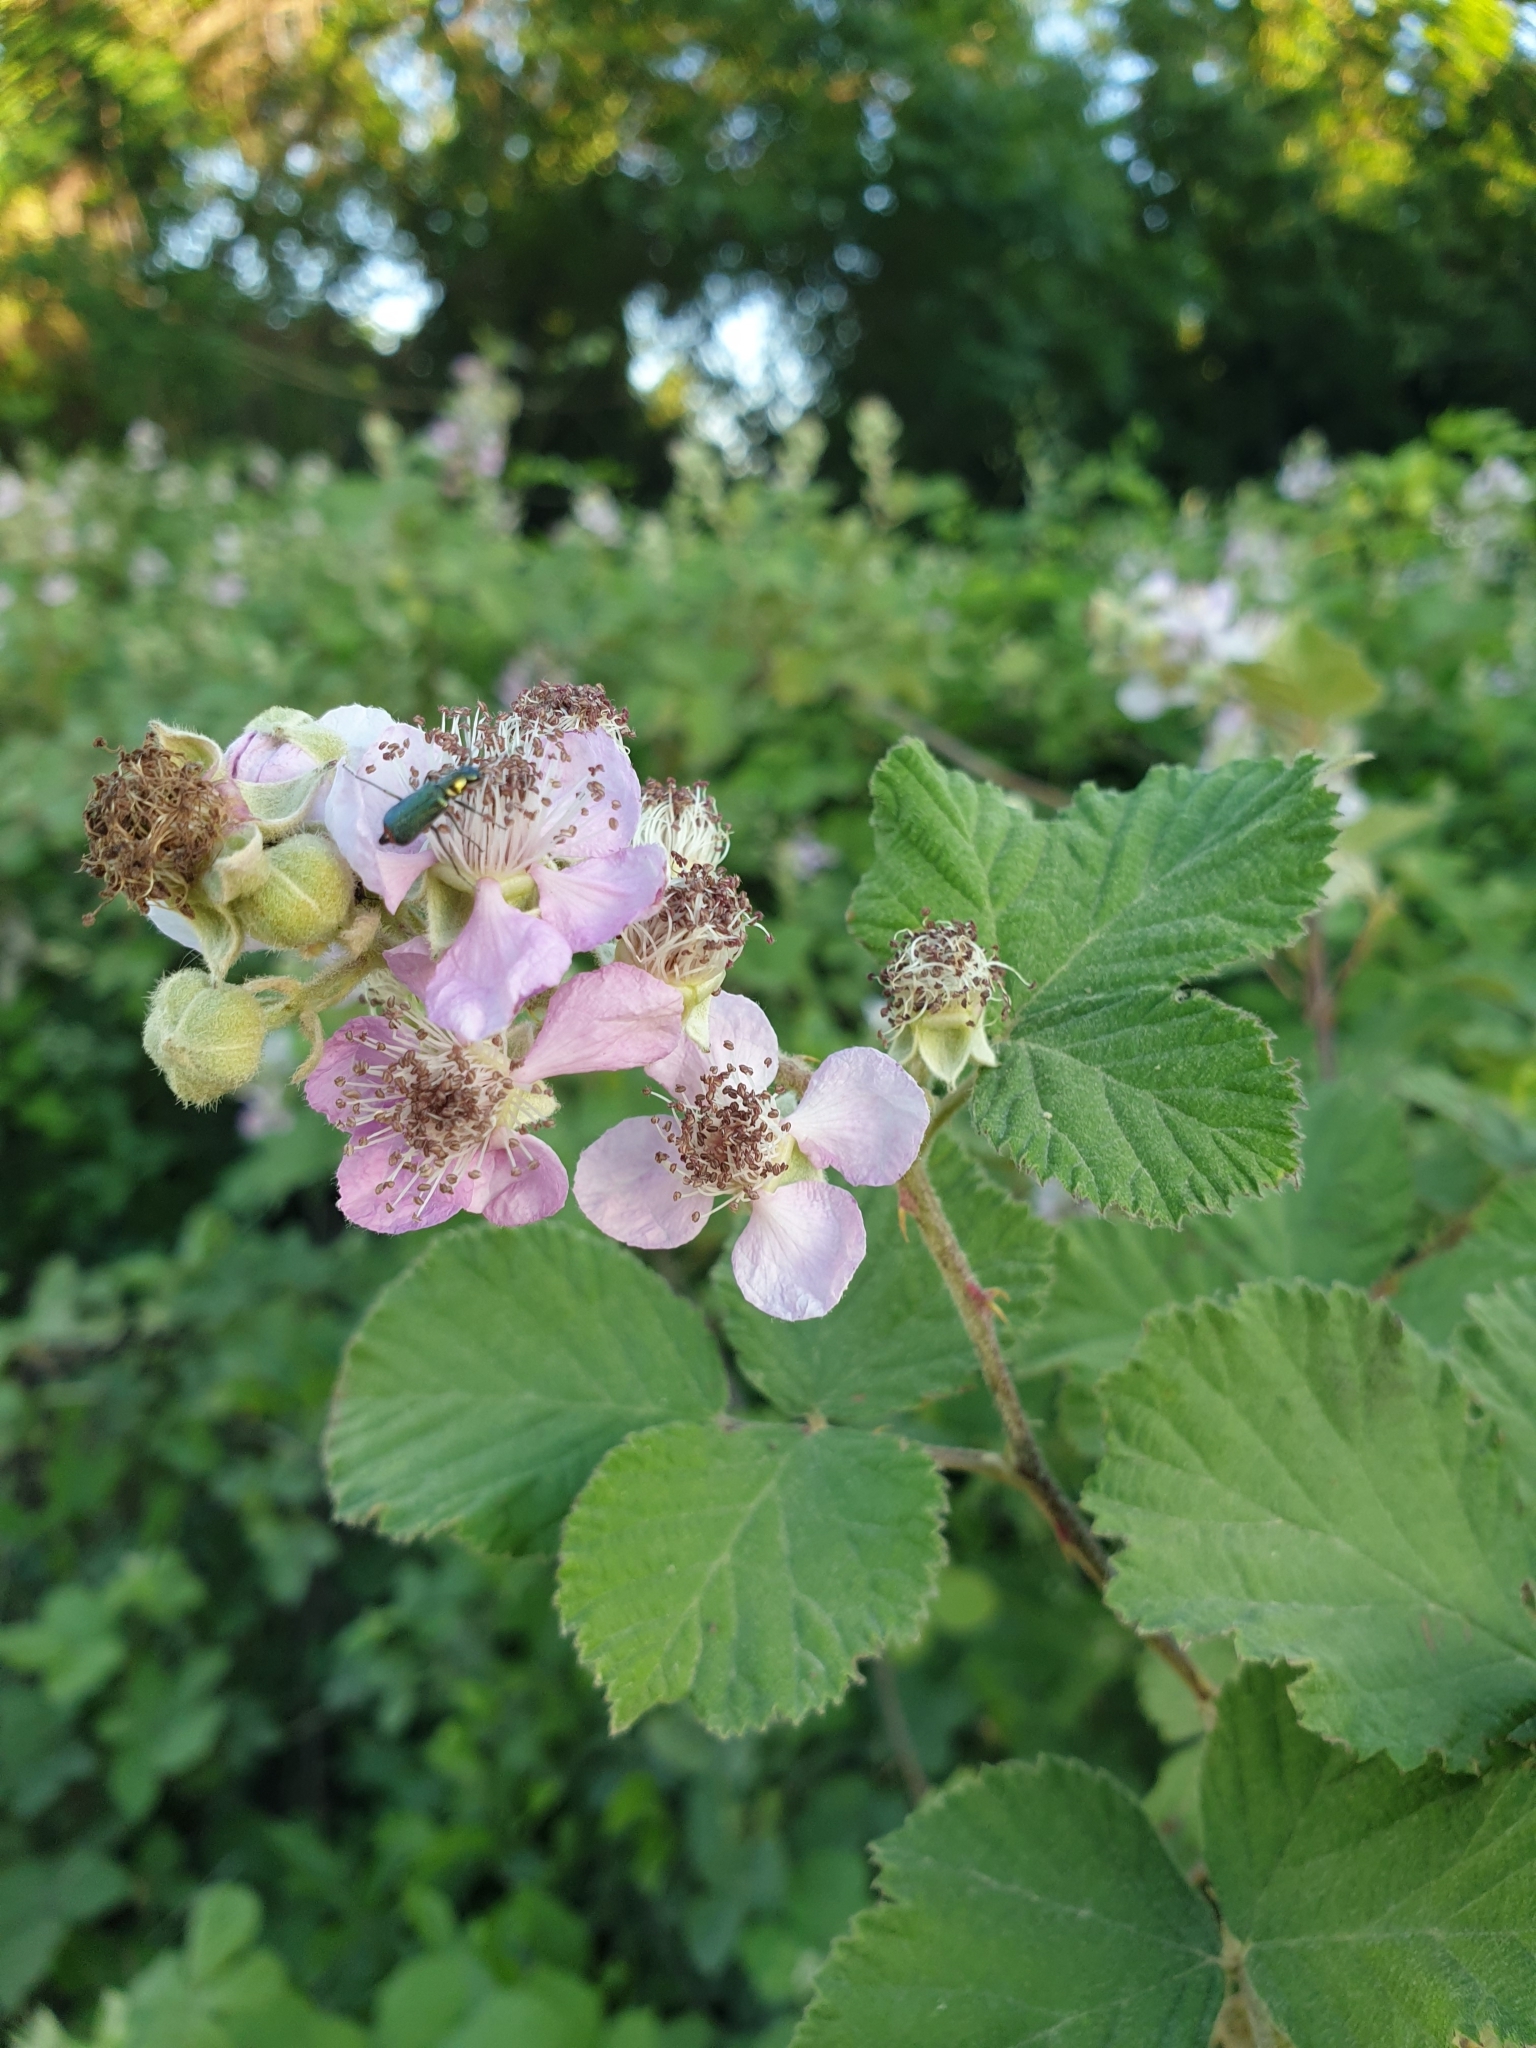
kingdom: Plantae
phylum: Tracheophyta
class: Magnoliopsida
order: Rosales
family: Rosaceae
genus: Rubus
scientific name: Rubus sanctus
